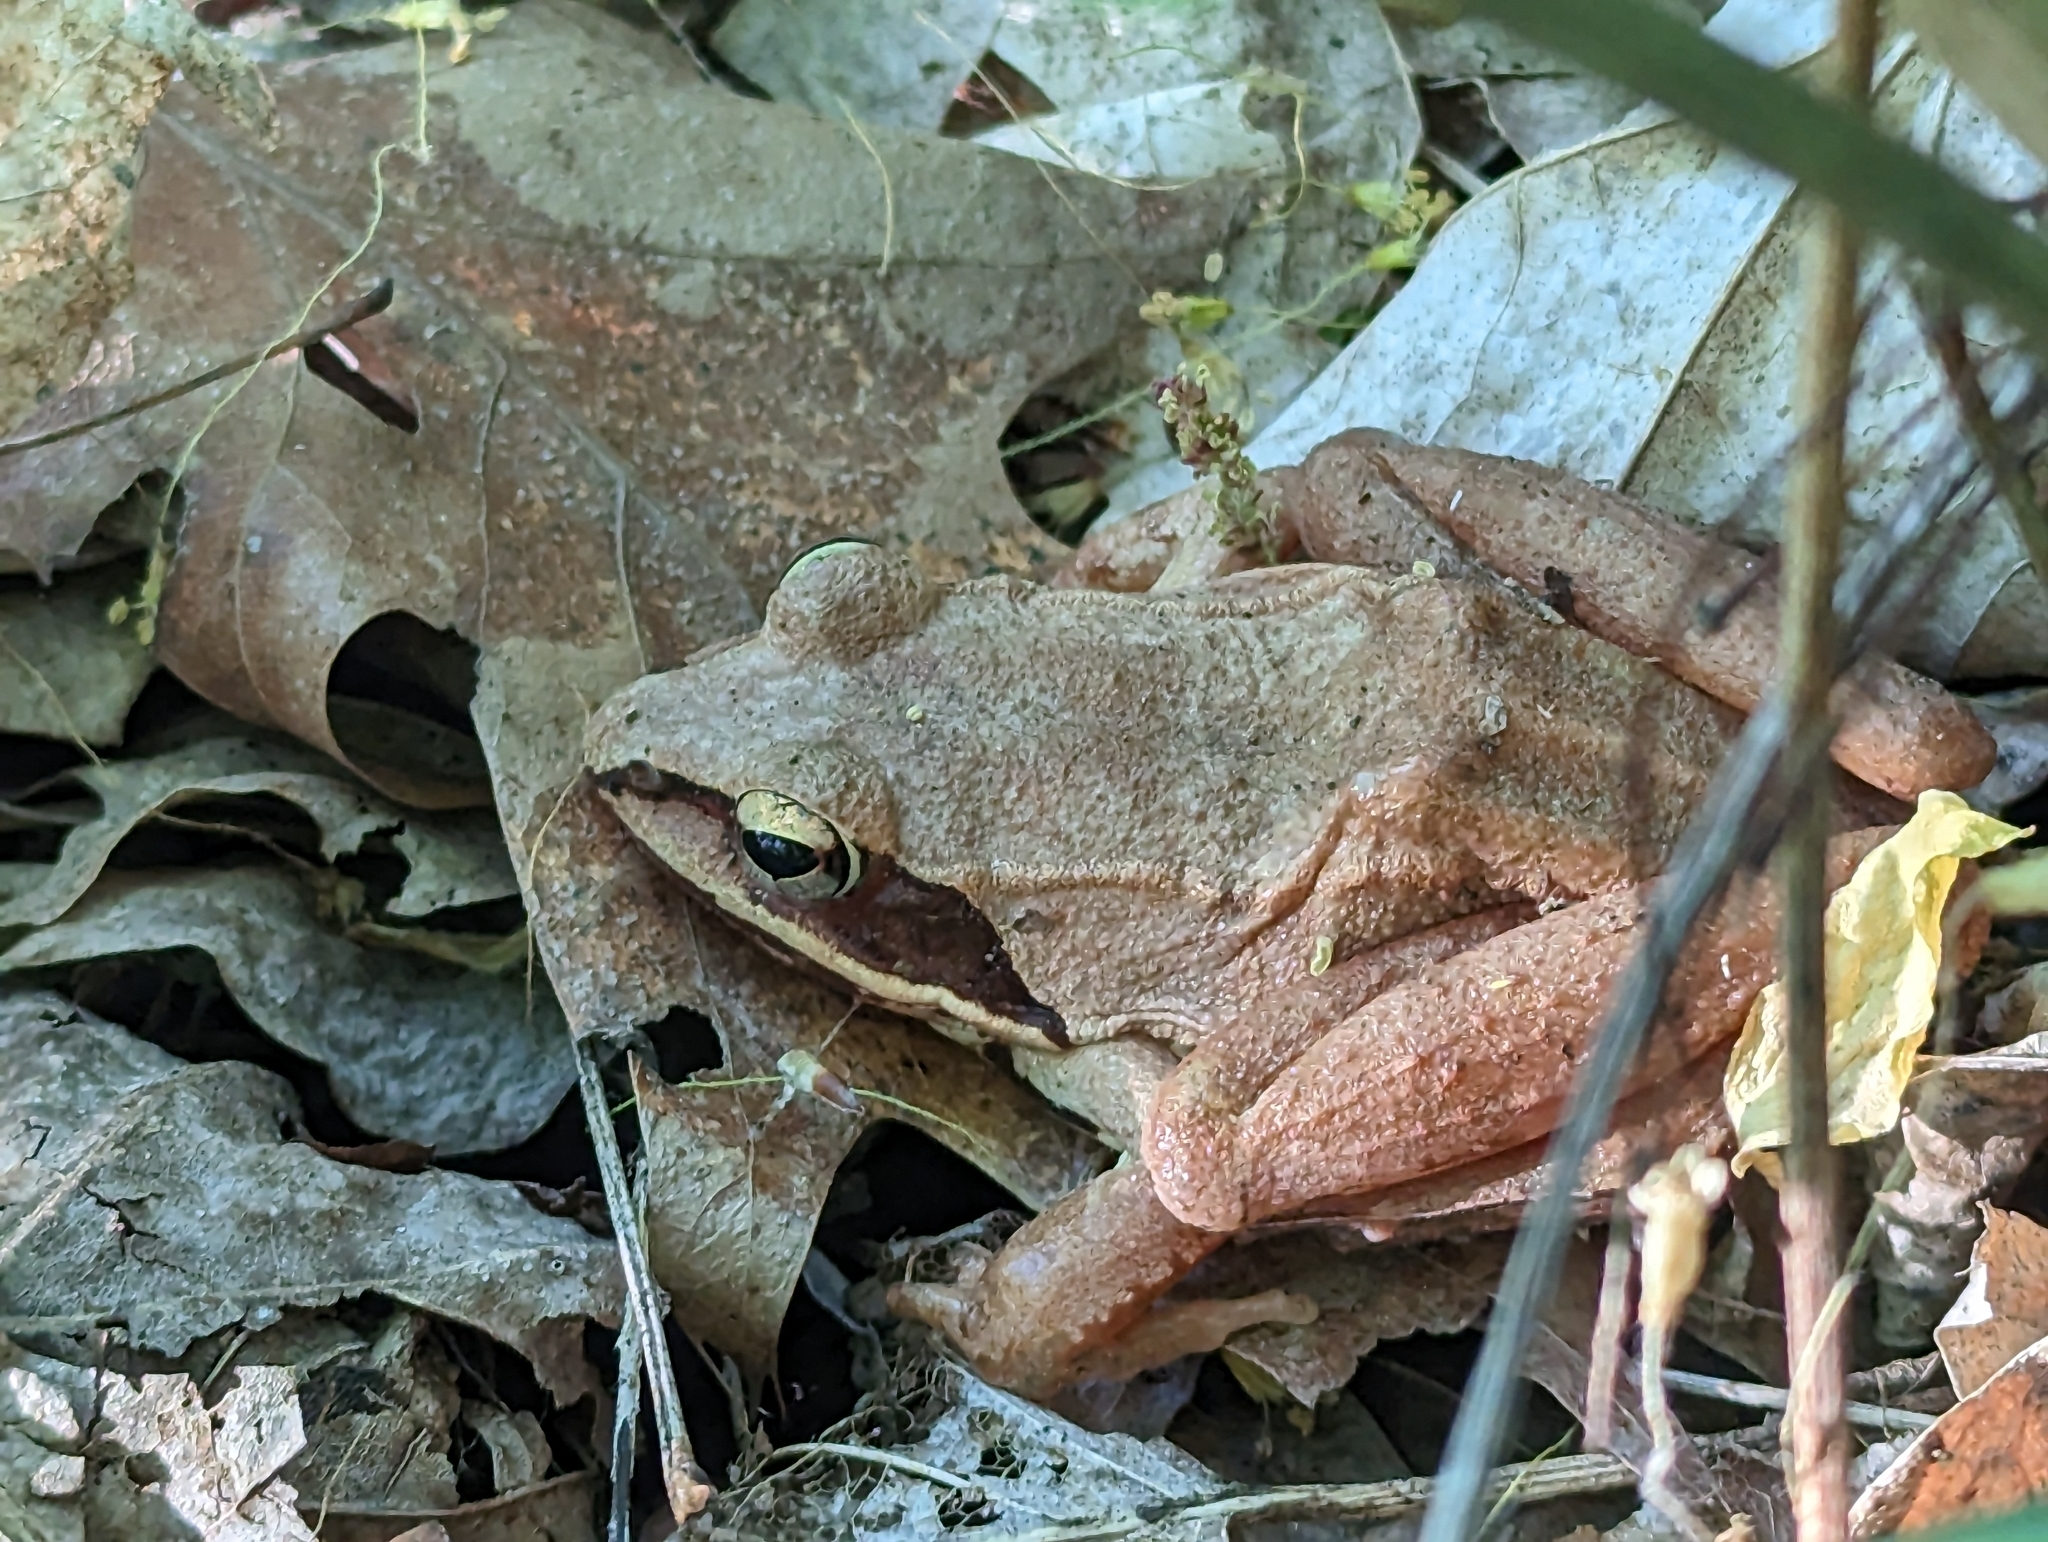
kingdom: Animalia
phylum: Chordata
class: Amphibia
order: Anura
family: Ranidae
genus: Lithobates
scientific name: Lithobates sylvaticus
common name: Wood frog
